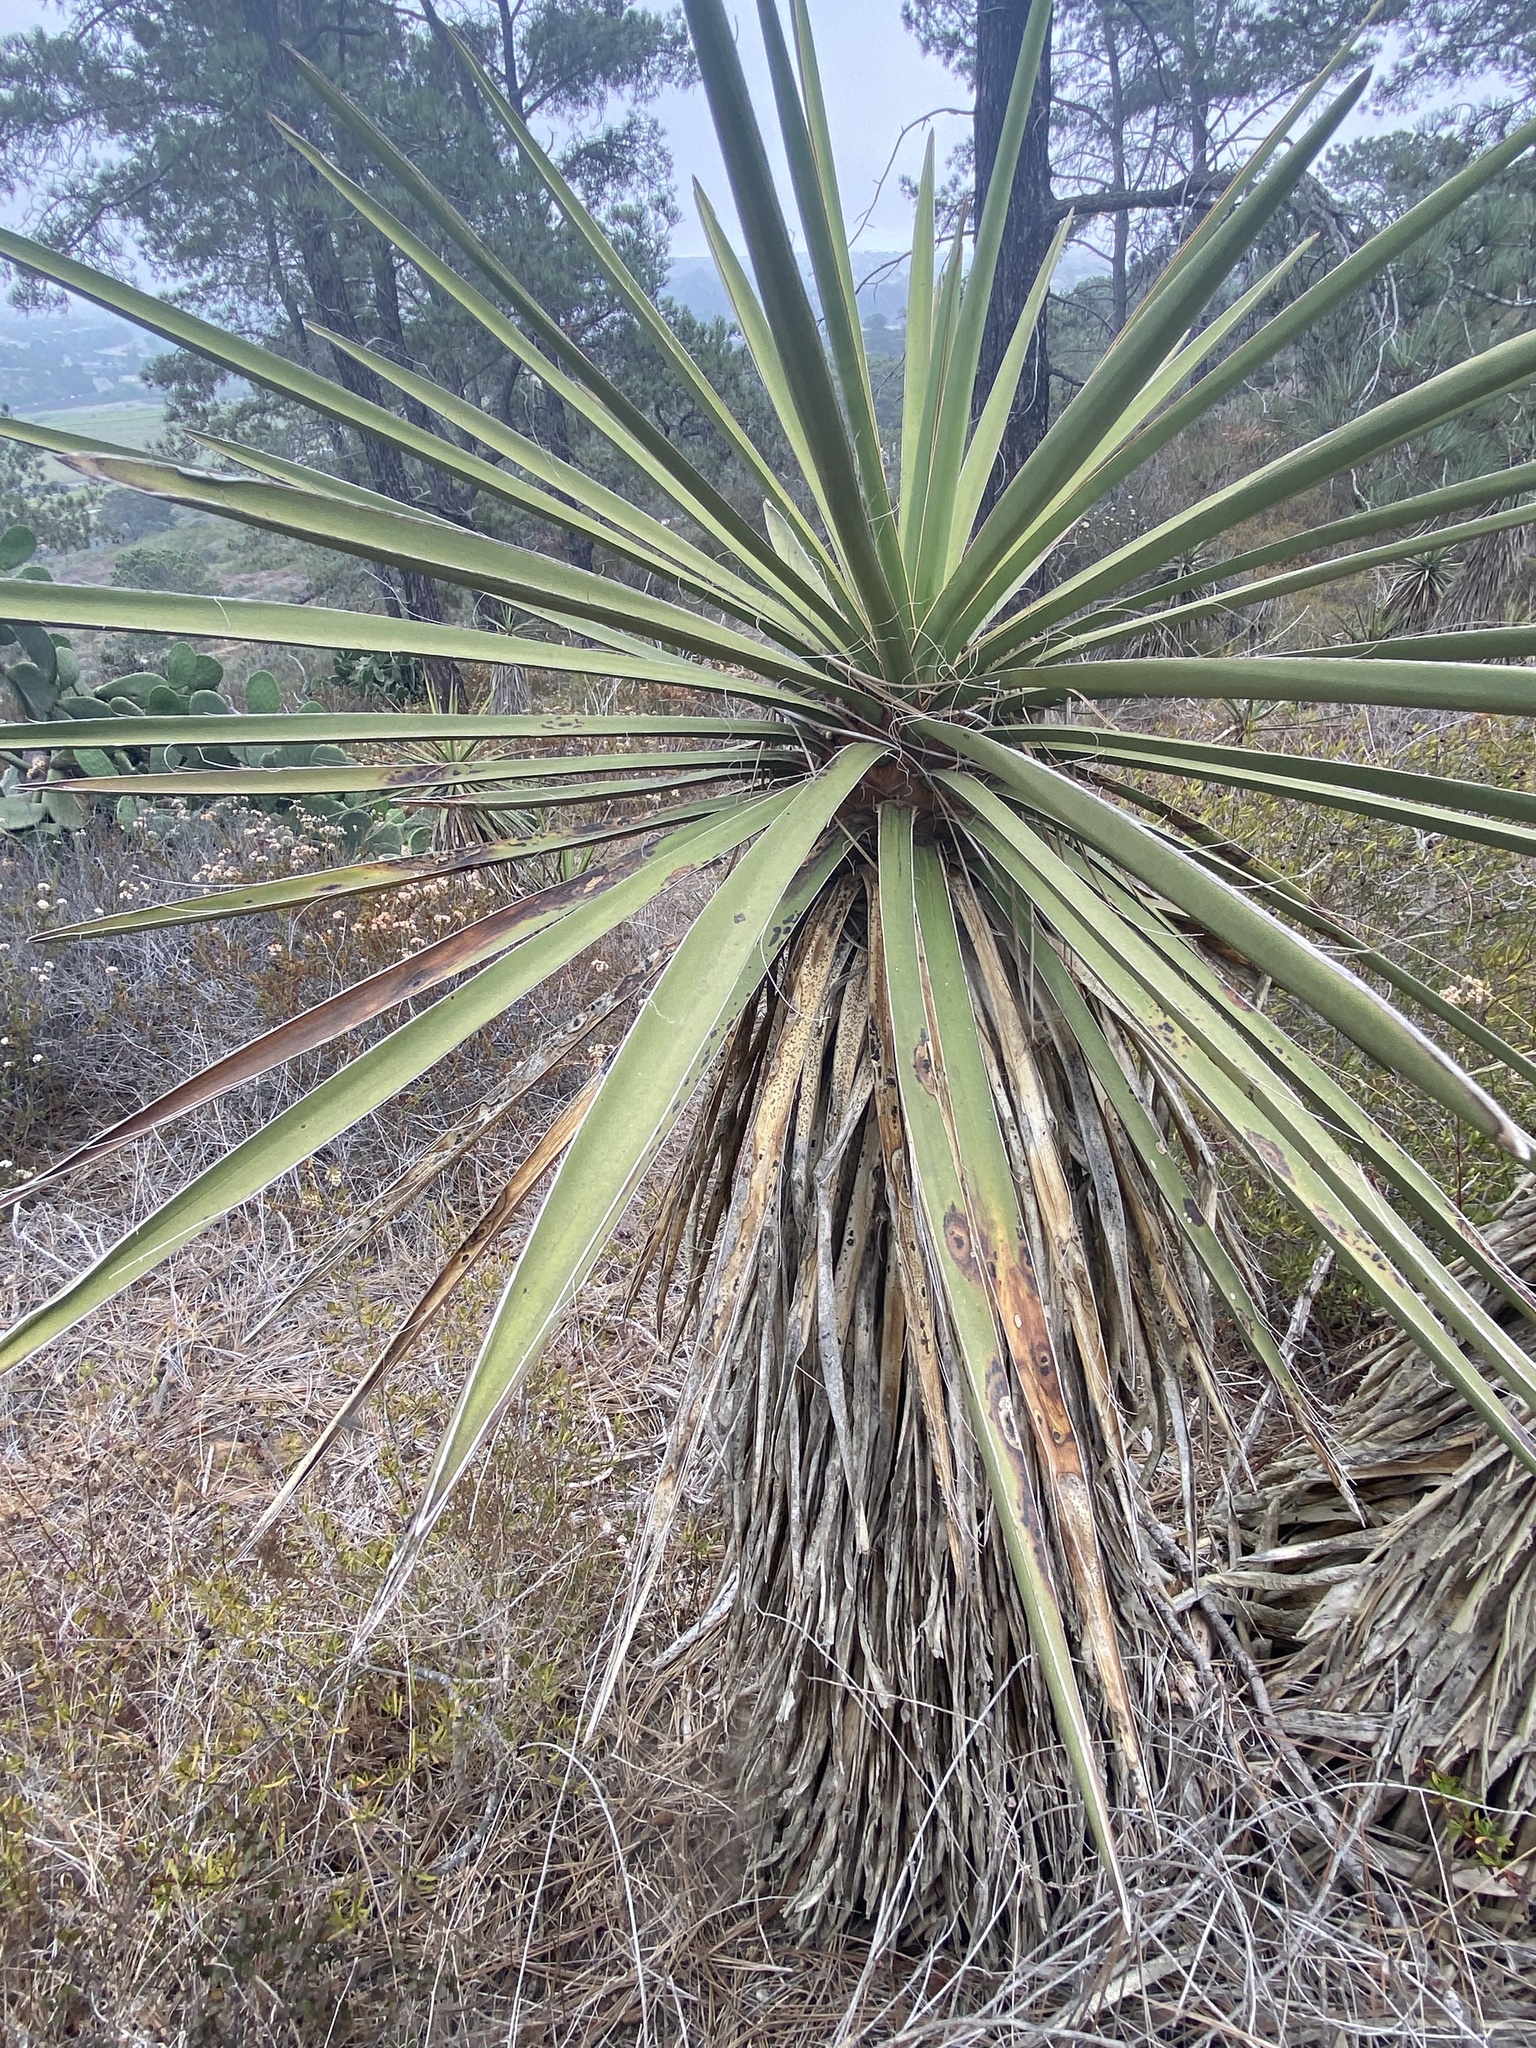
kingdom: Plantae
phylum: Tracheophyta
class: Liliopsida
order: Asparagales
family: Asparagaceae
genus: Yucca
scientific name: Yucca schidigera
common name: Mojave yucca
